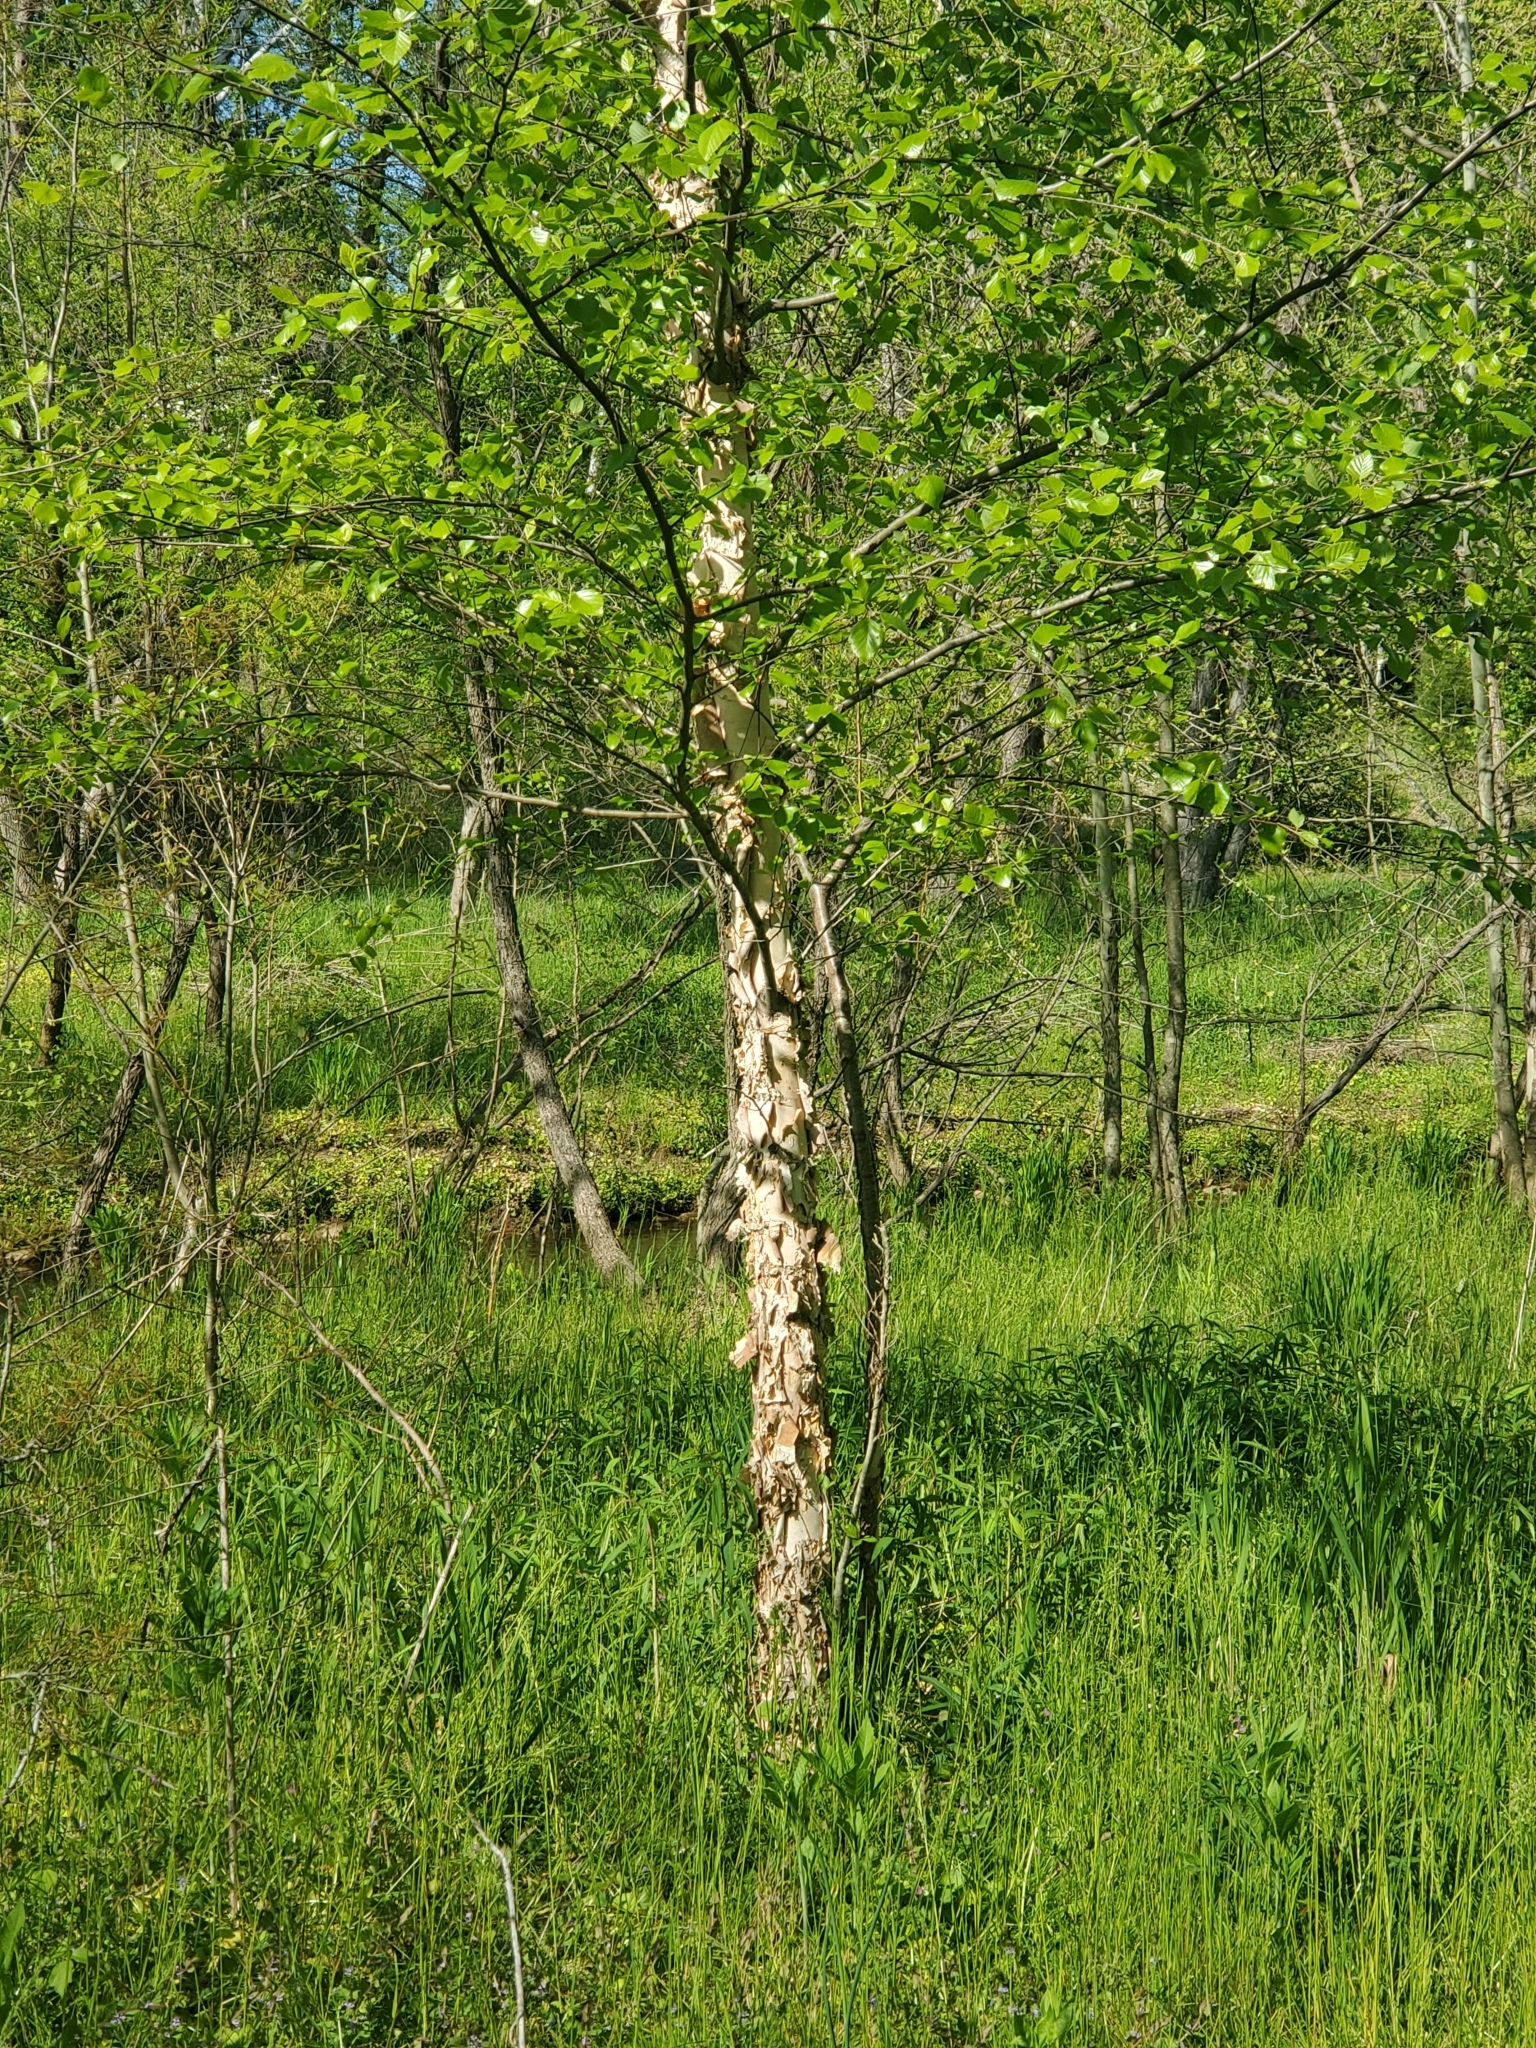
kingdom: Plantae
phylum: Tracheophyta
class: Magnoliopsida
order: Fagales
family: Betulaceae
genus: Betula
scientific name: Betula nigra
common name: Black birch
